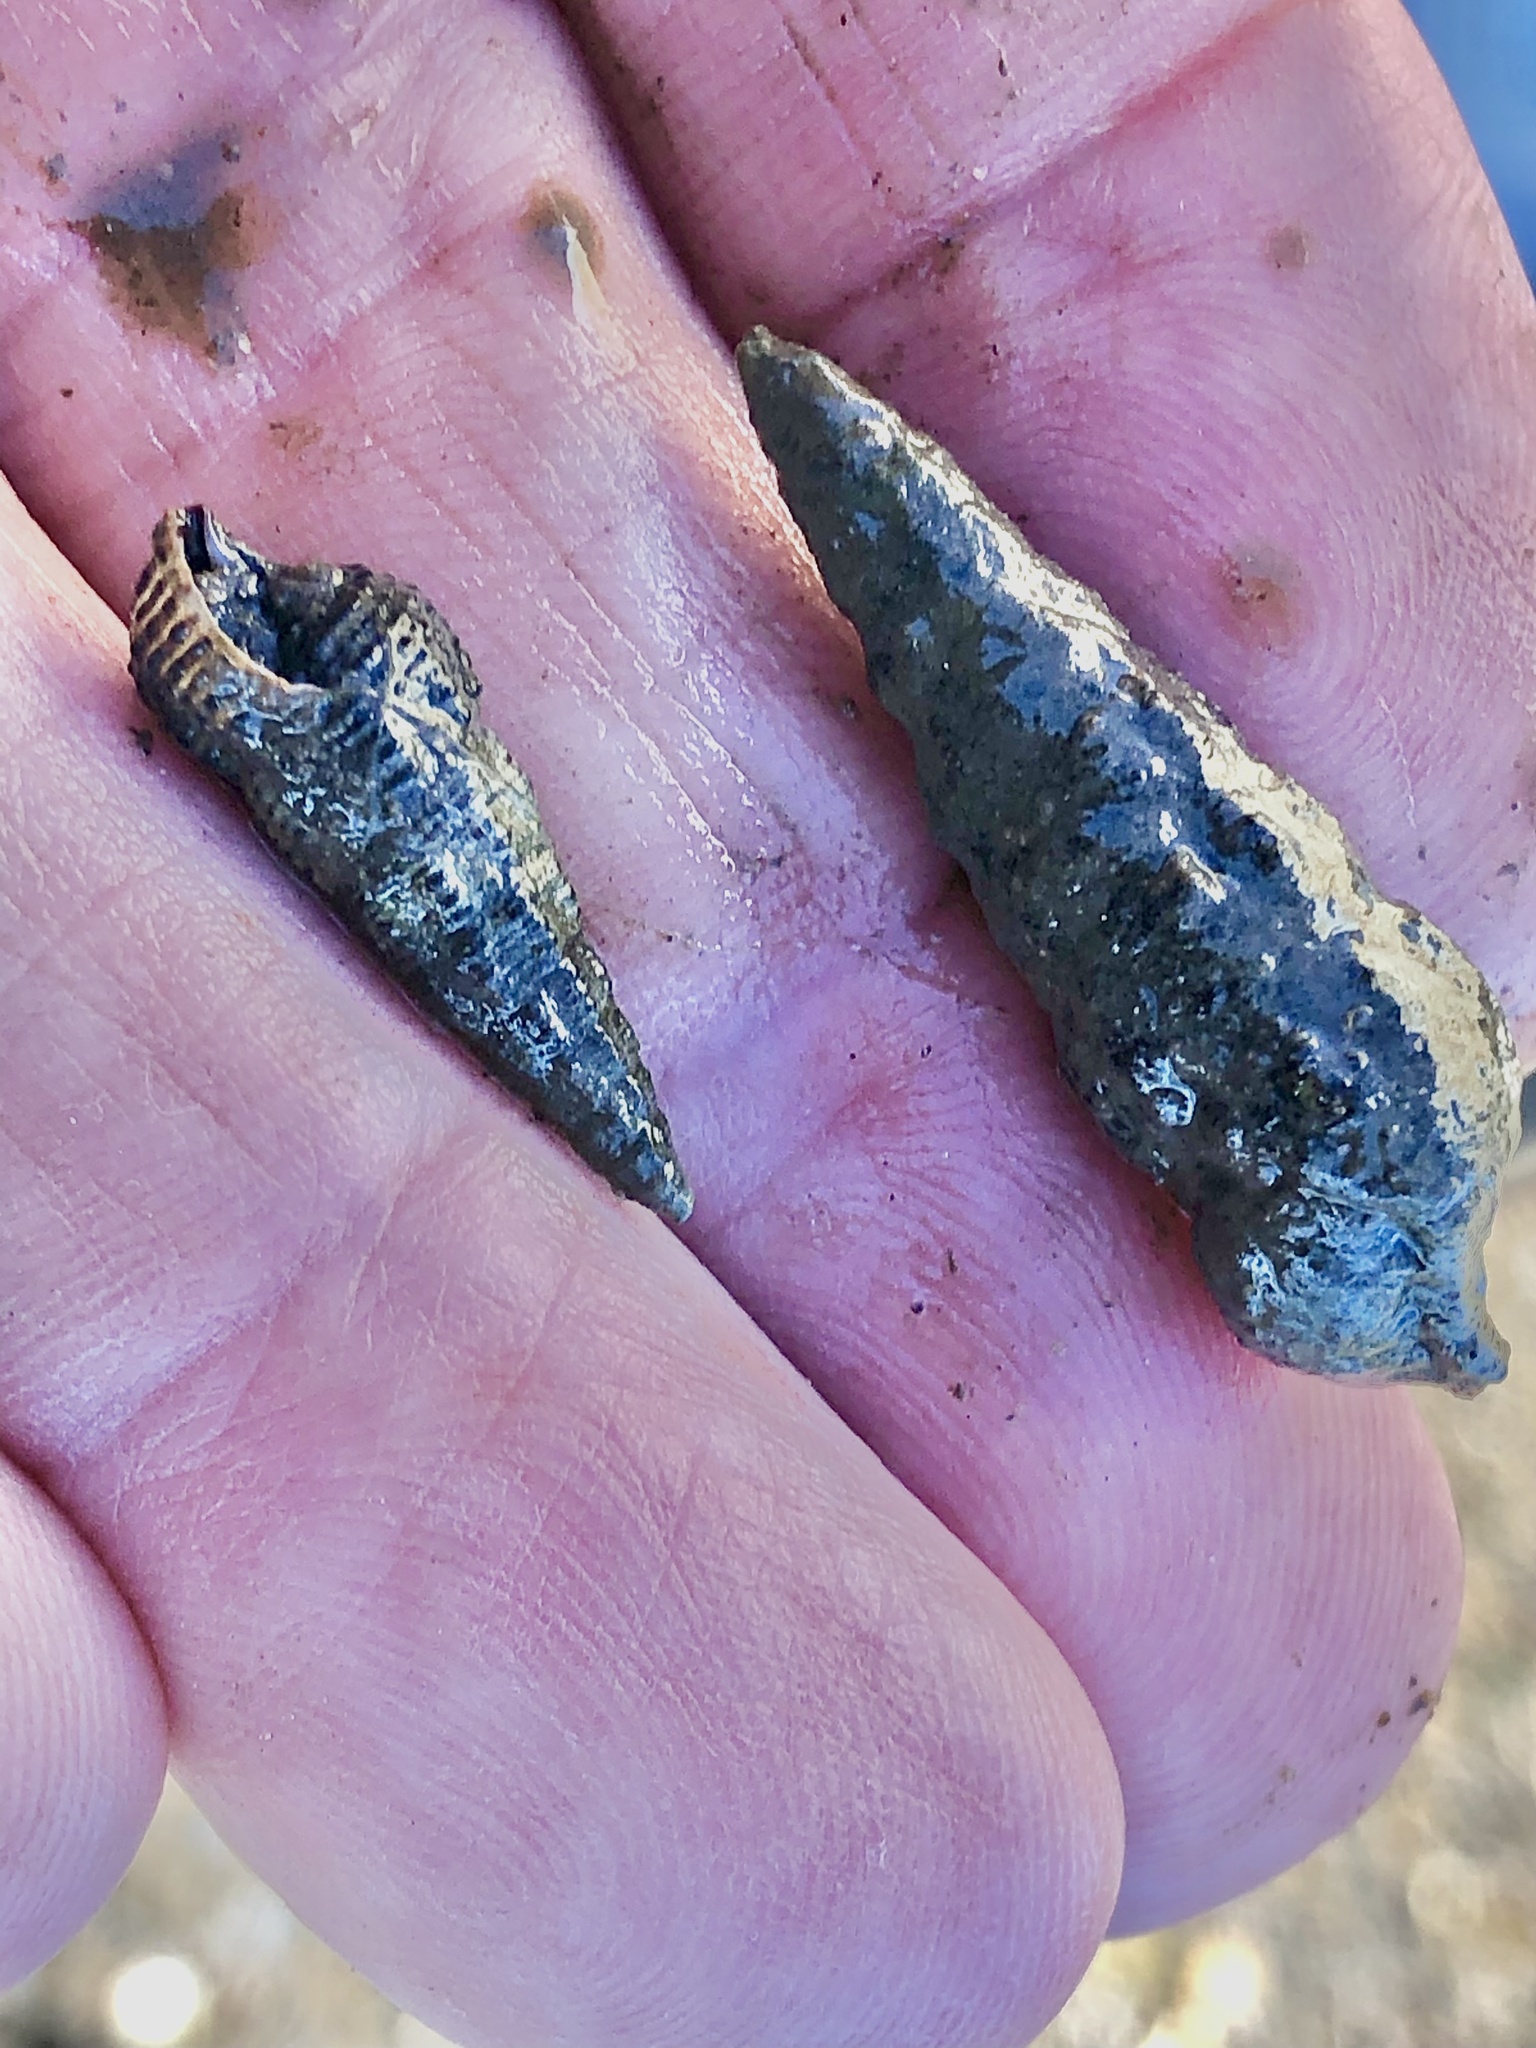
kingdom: Animalia
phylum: Mollusca
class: Gastropoda
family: Batillariidae
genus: Batillaria
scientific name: Batillaria attramentaria
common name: Japanese false cerith
